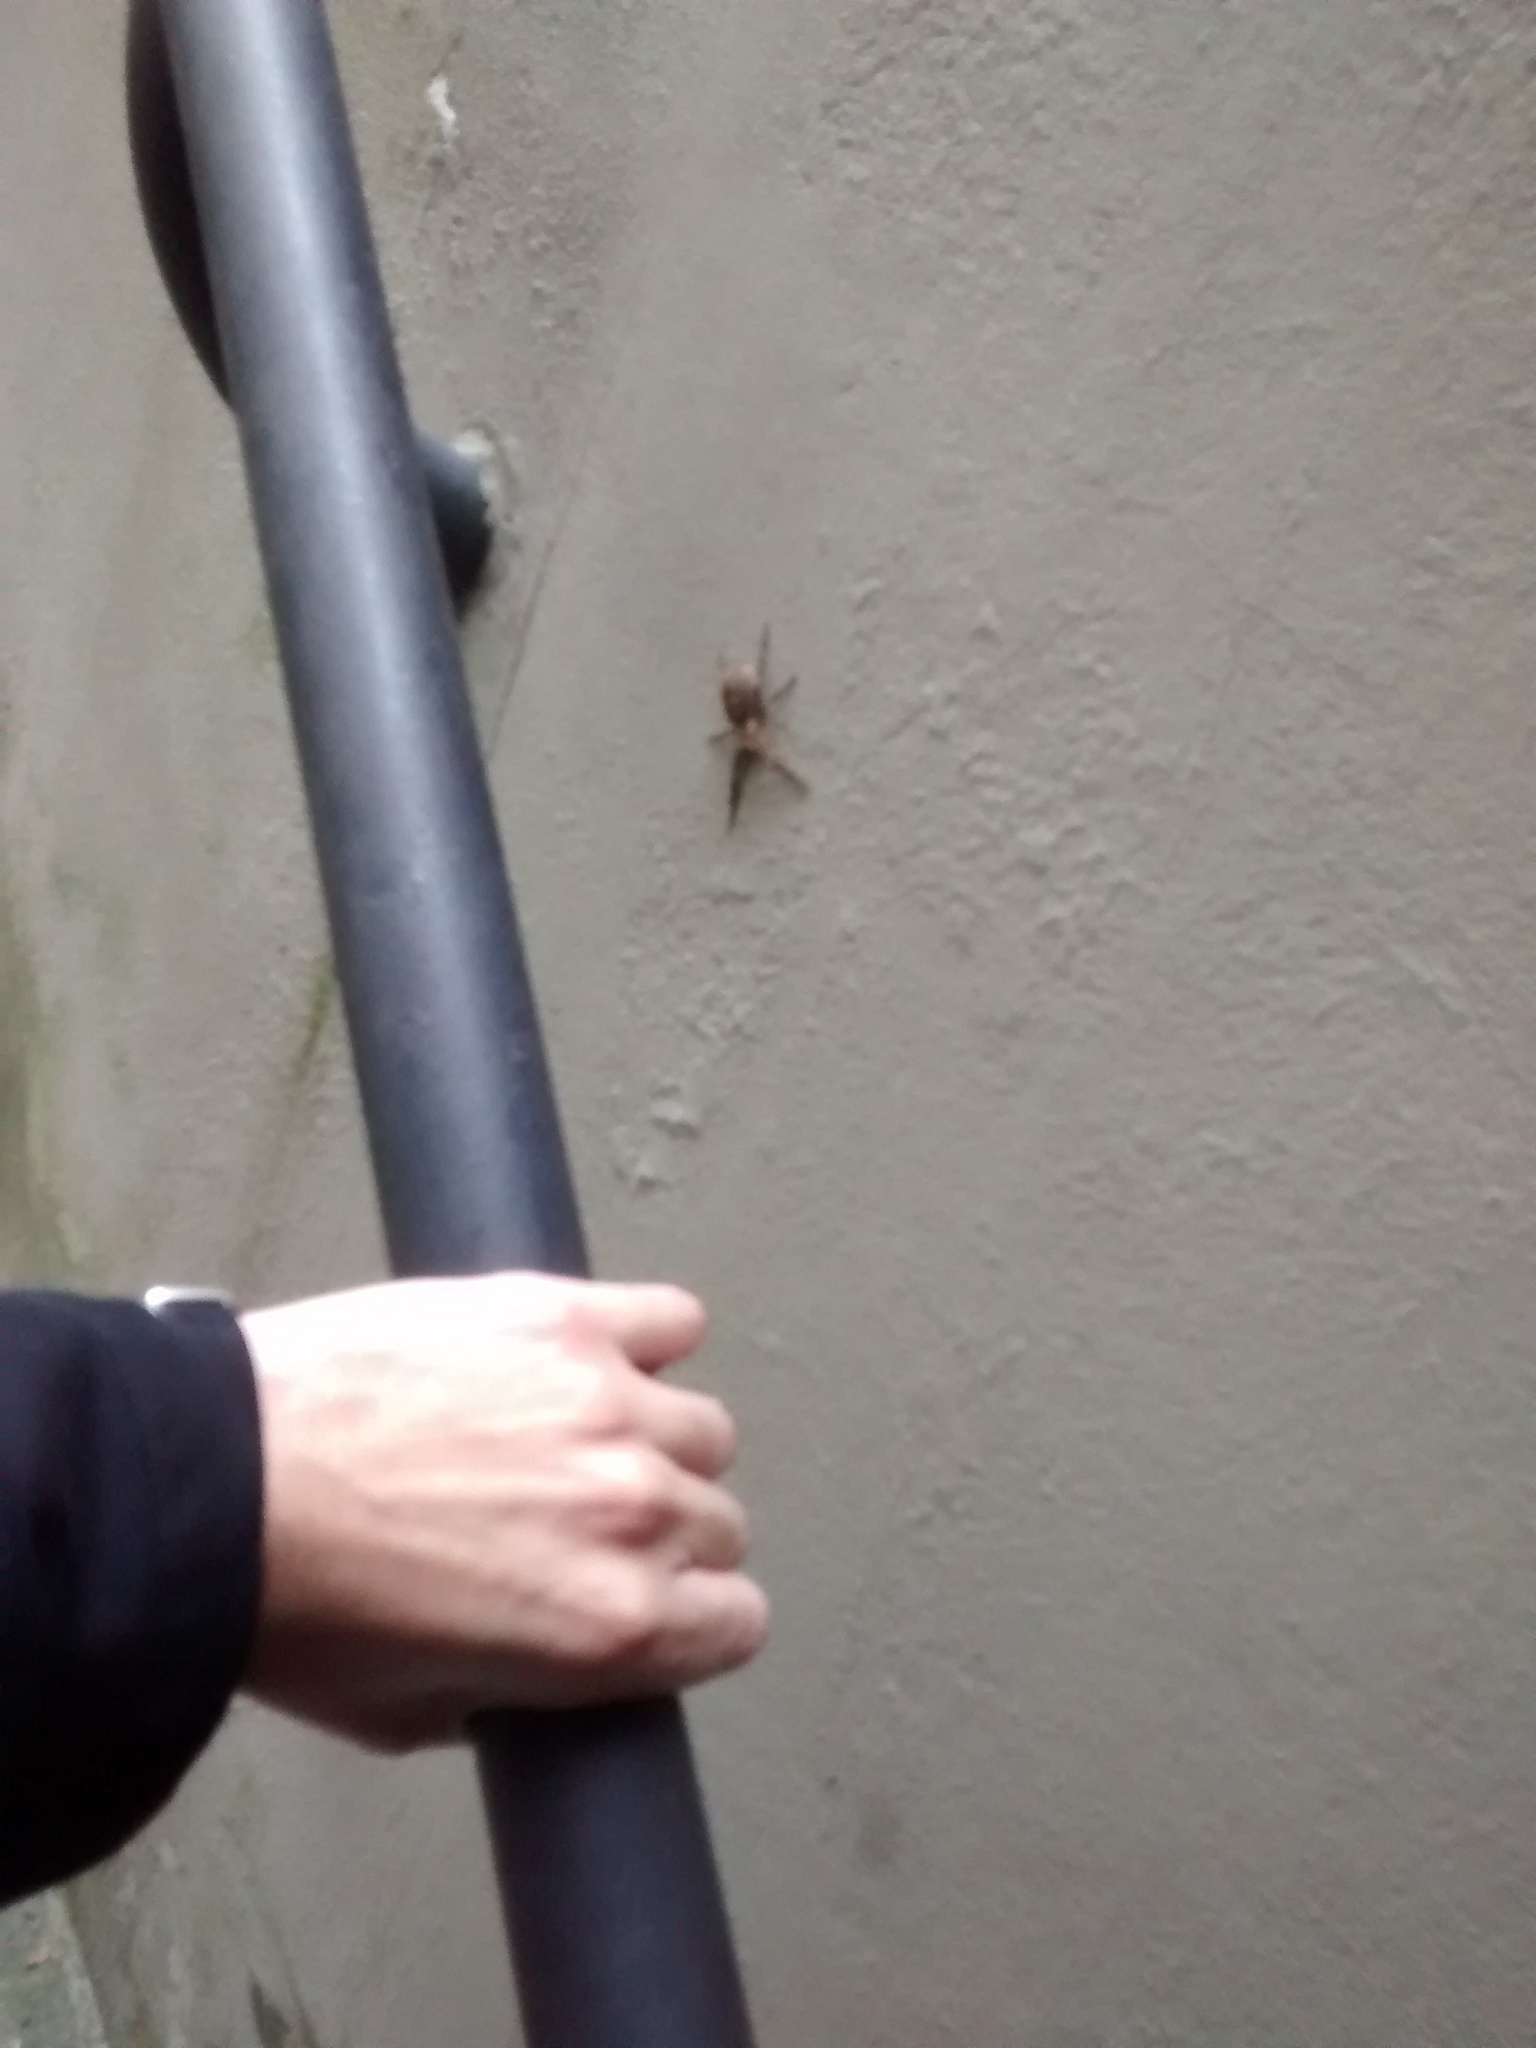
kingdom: Animalia
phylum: Arthropoda
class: Arachnida
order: Araneae
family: Zoropsidae
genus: Zoropsis
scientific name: Zoropsis spinimana
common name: Zoropsid spider
